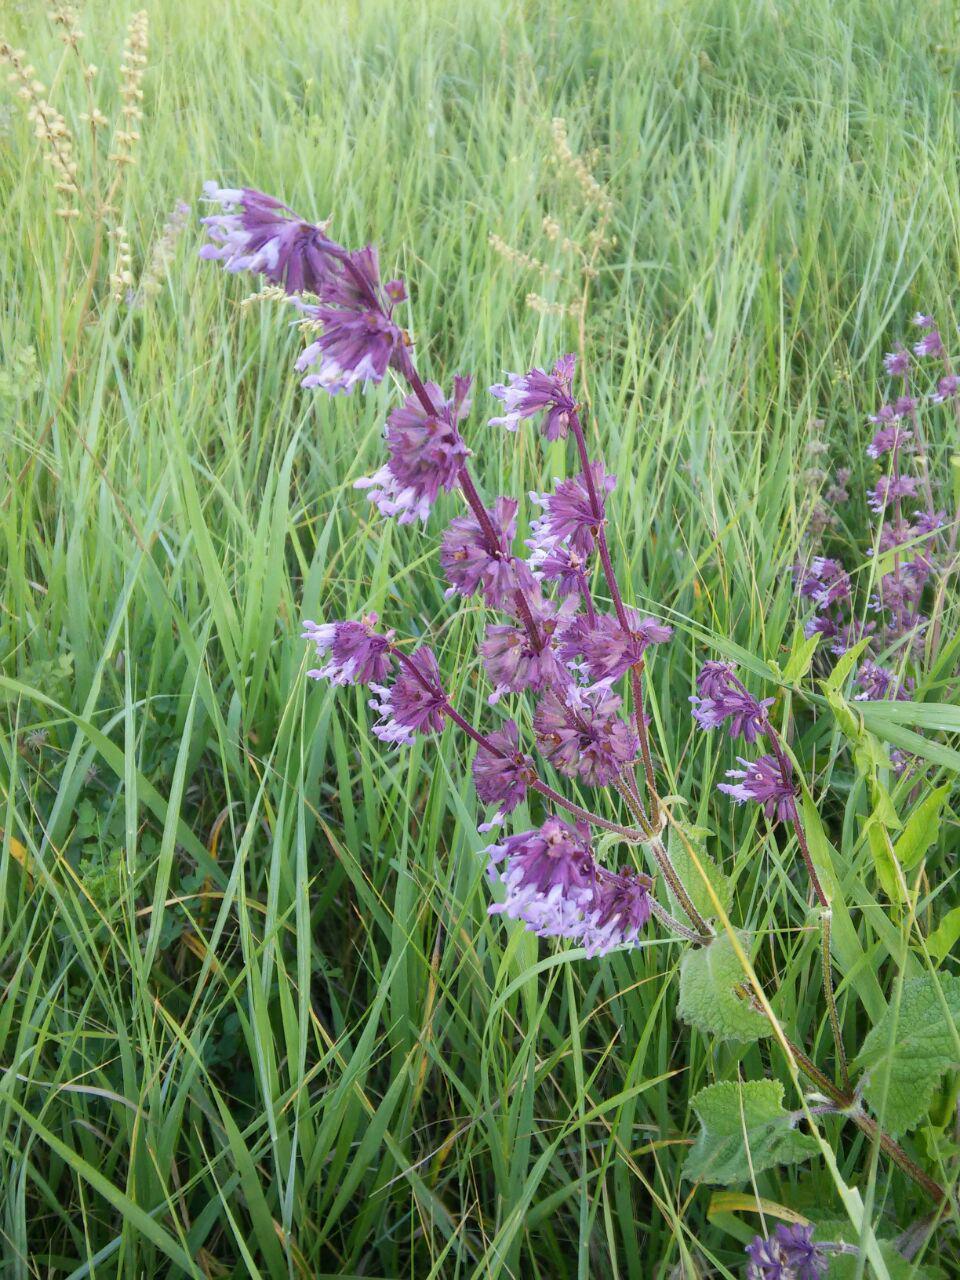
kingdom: Plantae
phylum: Tracheophyta
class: Magnoliopsida
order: Lamiales
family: Lamiaceae
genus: Salvia
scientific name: Salvia verticillata
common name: Whorled clary
